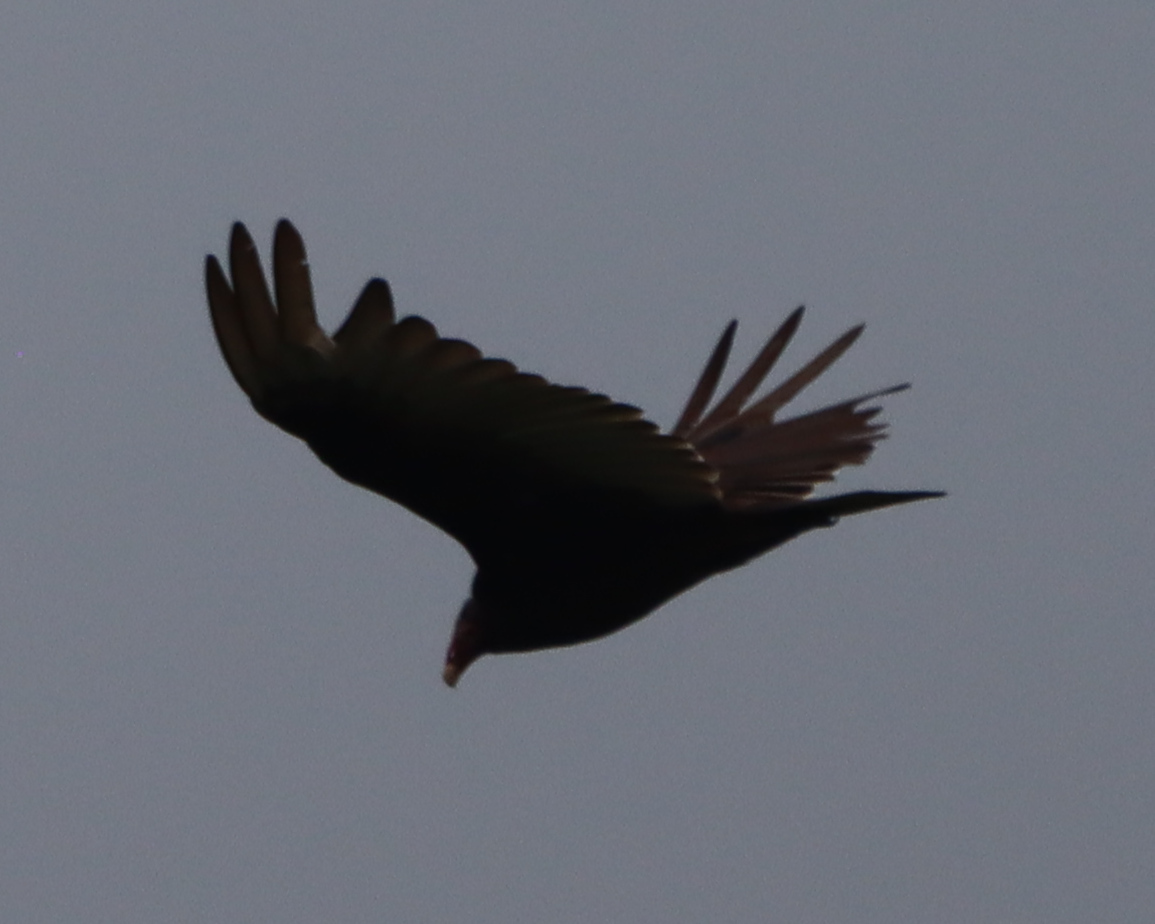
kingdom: Animalia
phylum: Chordata
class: Aves
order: Accipitriformes
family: Cathartidae
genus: Cathartes
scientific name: Cathartes aura
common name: Turkey vulture
